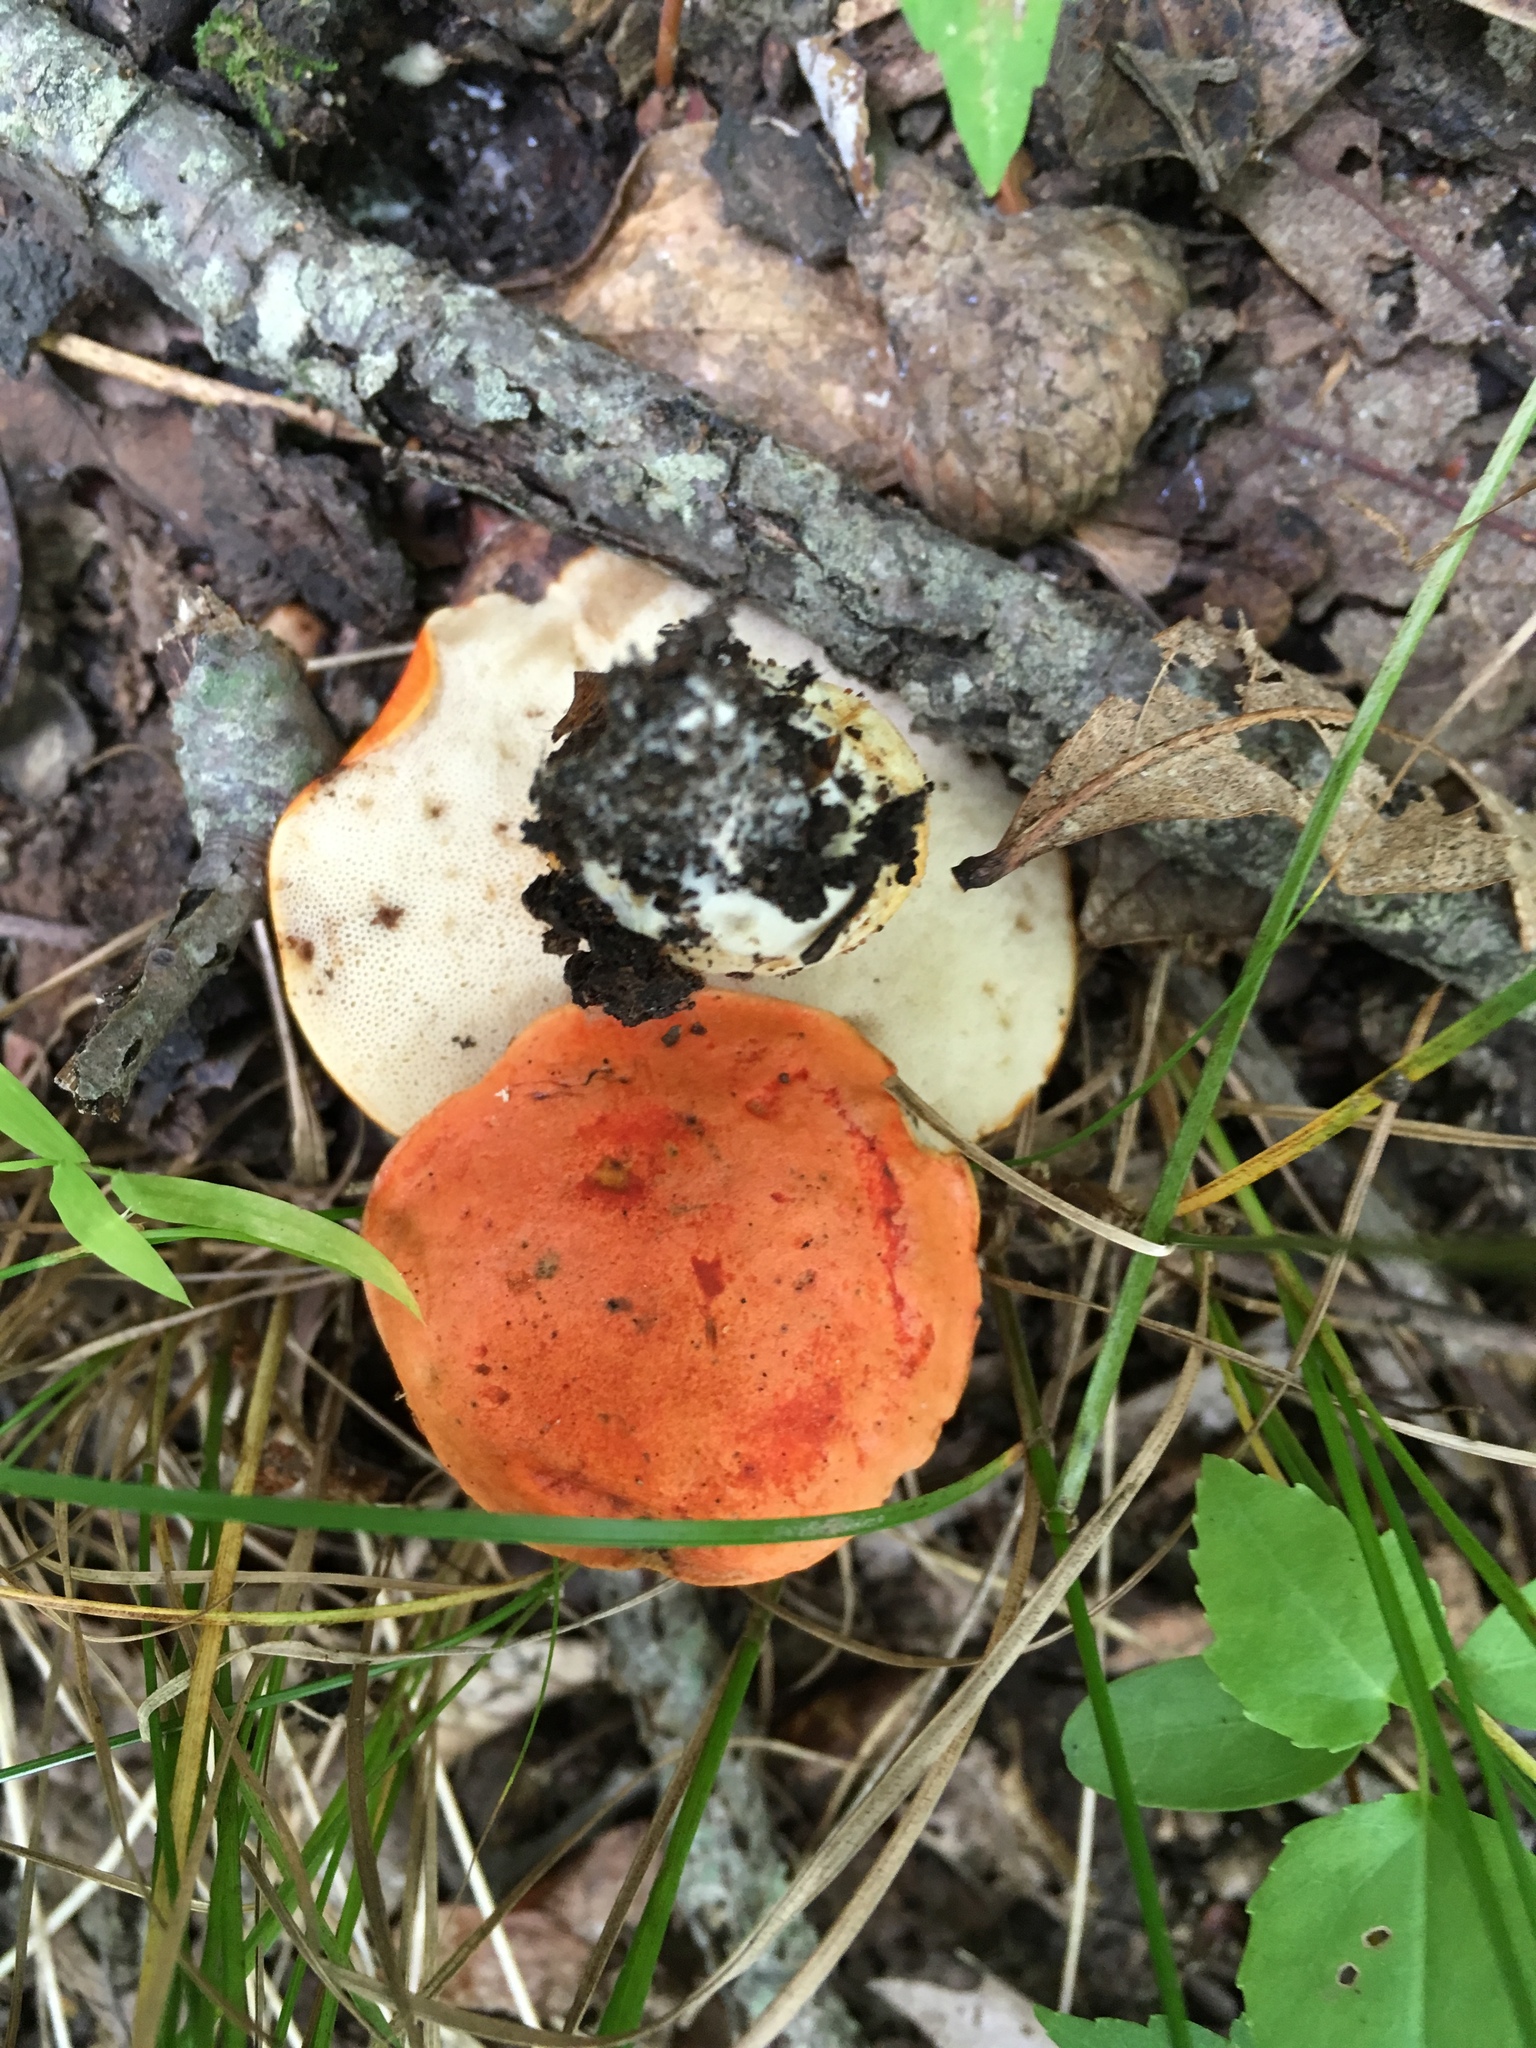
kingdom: Fungi
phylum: Basidiomycota
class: Agaricomycetes
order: Boletales
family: Boletaceae
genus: Tylopilus
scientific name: Tylopilus balloui
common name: Burnt-orange bolete
